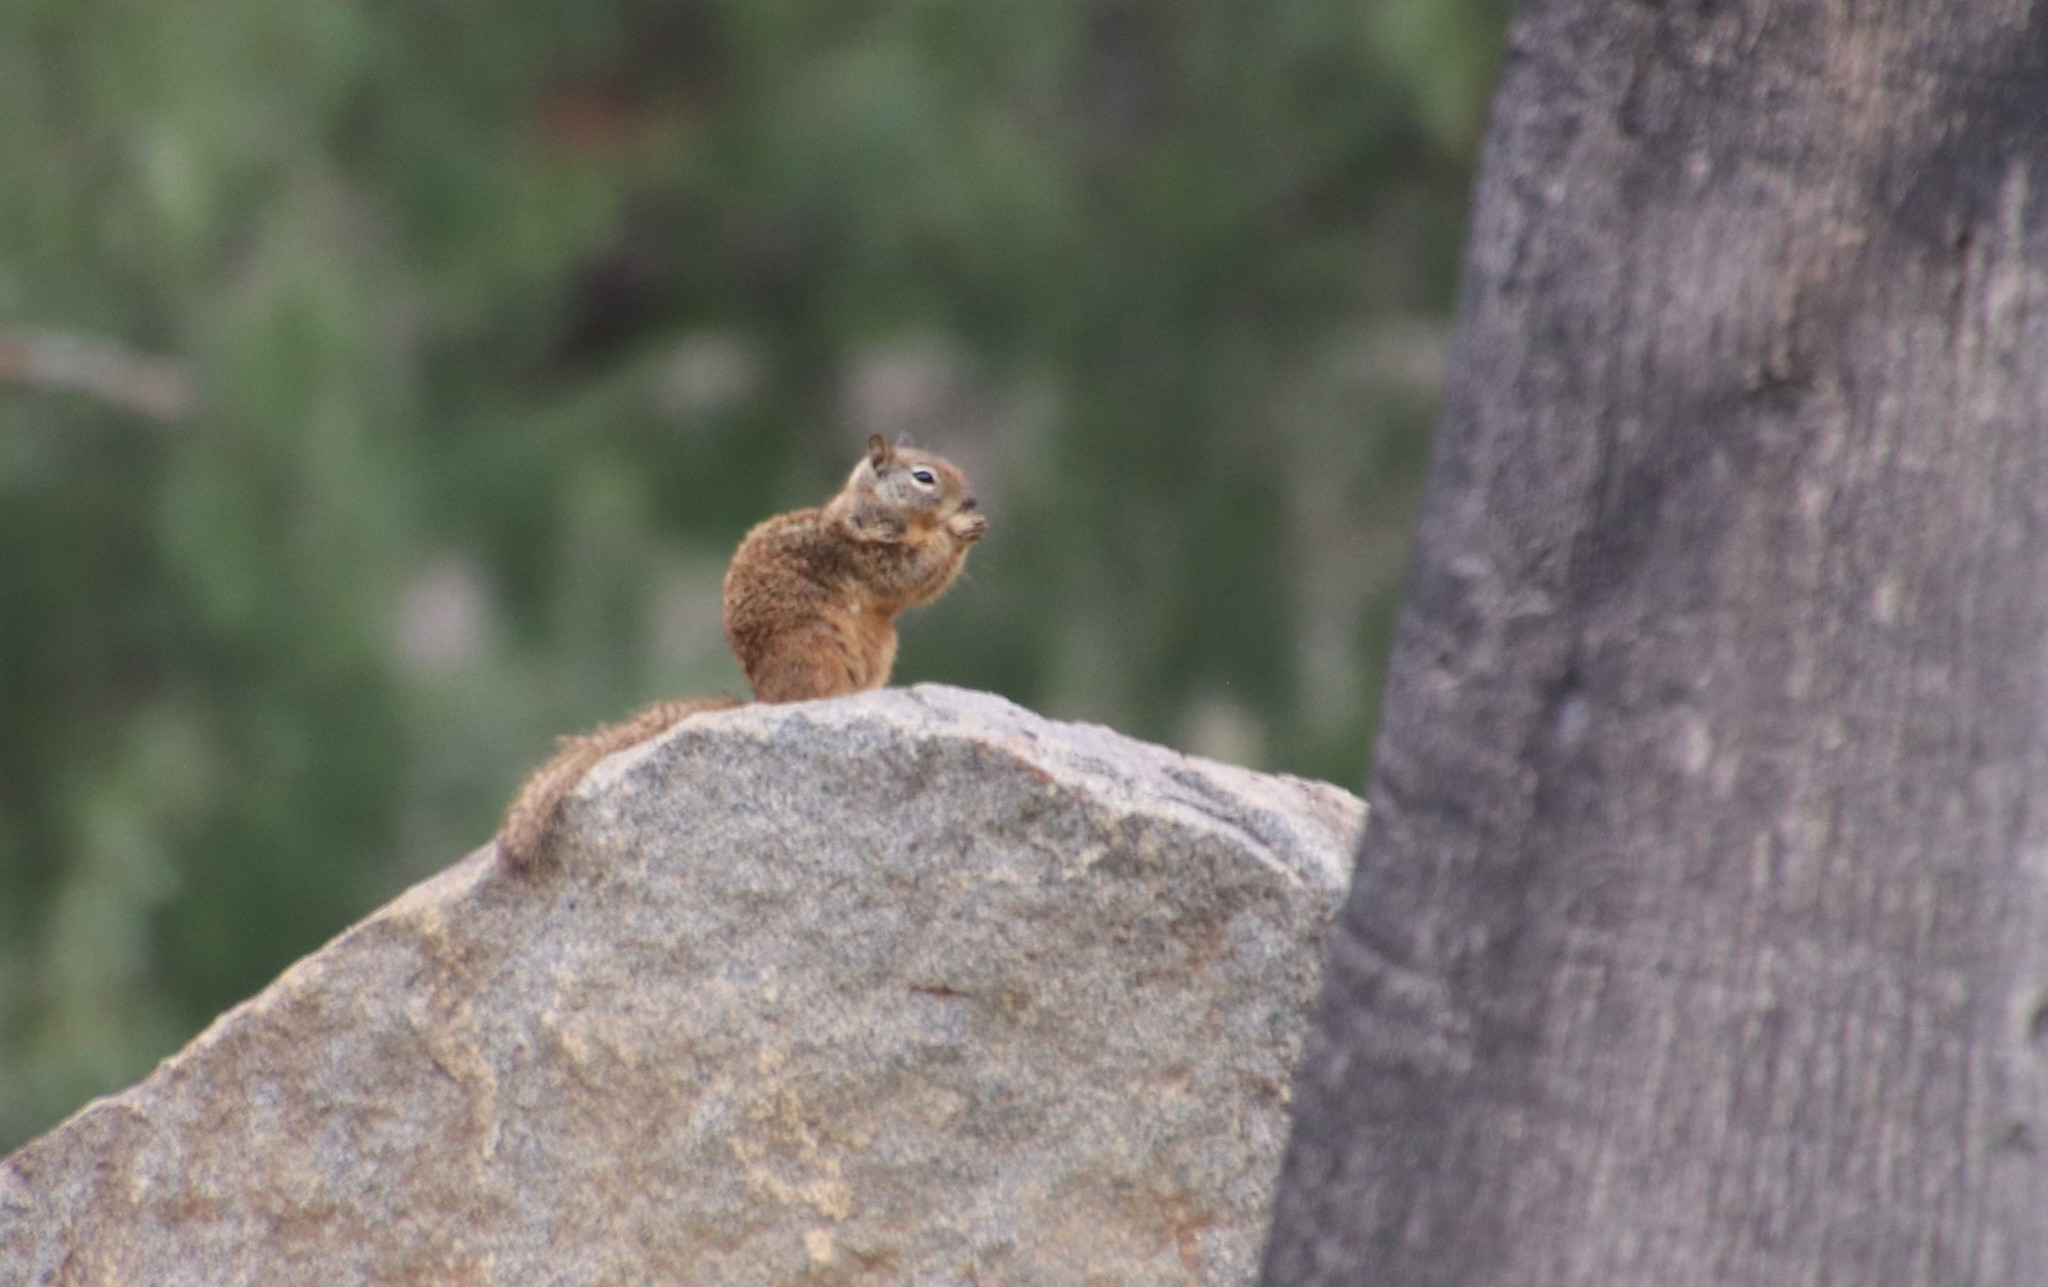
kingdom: Animalia
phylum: Chordata
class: Mammalia
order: Rodentia
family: Sciuridae
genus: Otospermophilus
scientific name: Otospermophilus beecheyi
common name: California ground squirrel
